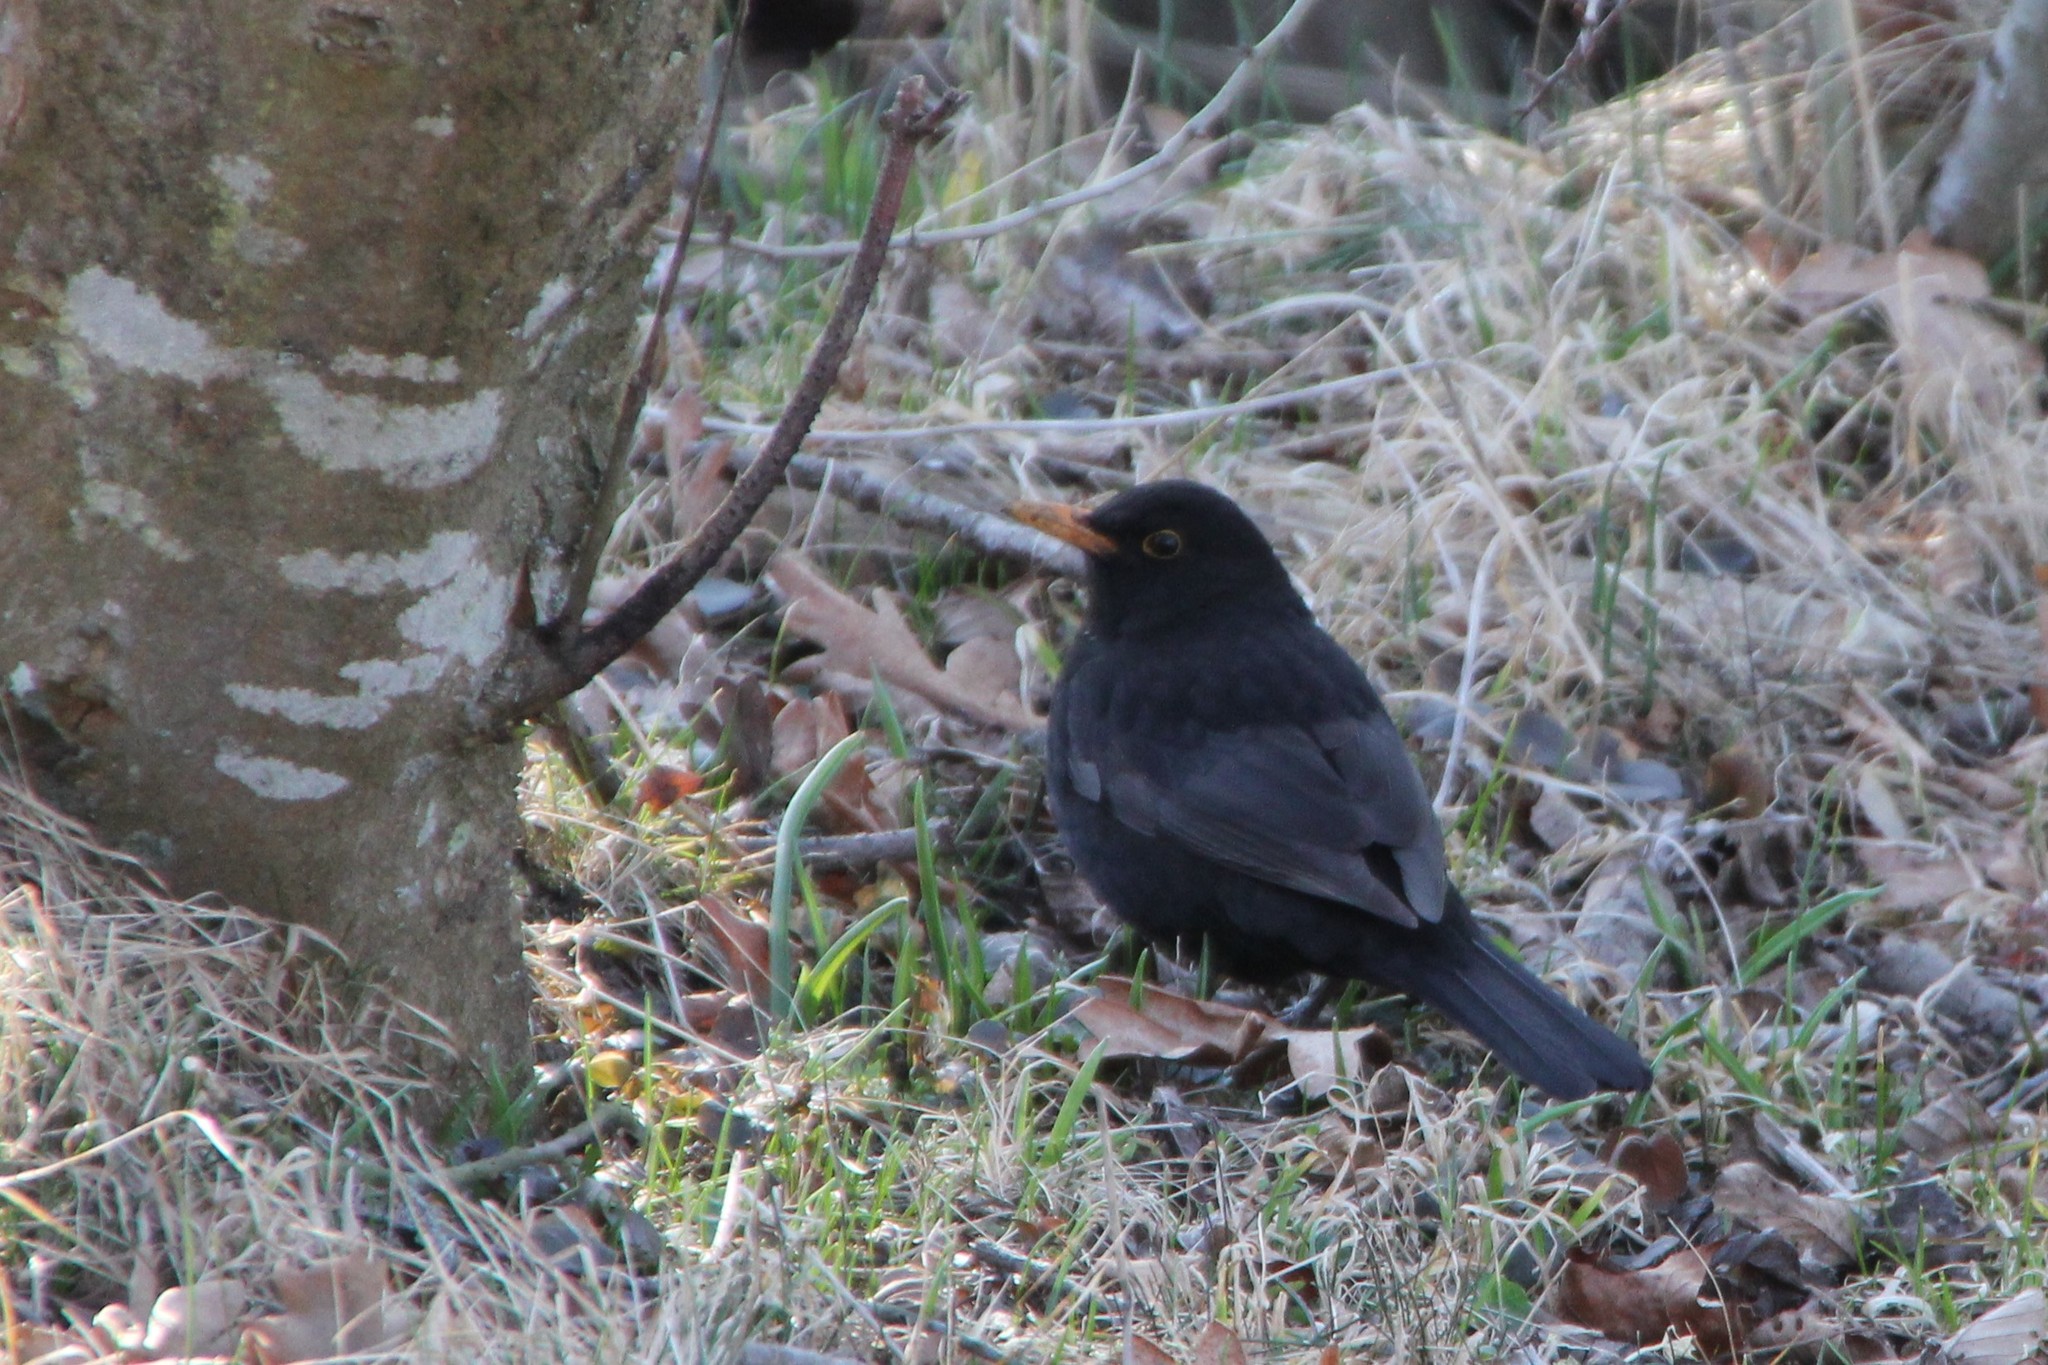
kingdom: Animalia
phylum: Chordata
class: Aves
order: Passeriformes
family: Turdidae
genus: Turdus
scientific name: Turdus merula
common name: Common blackbird
